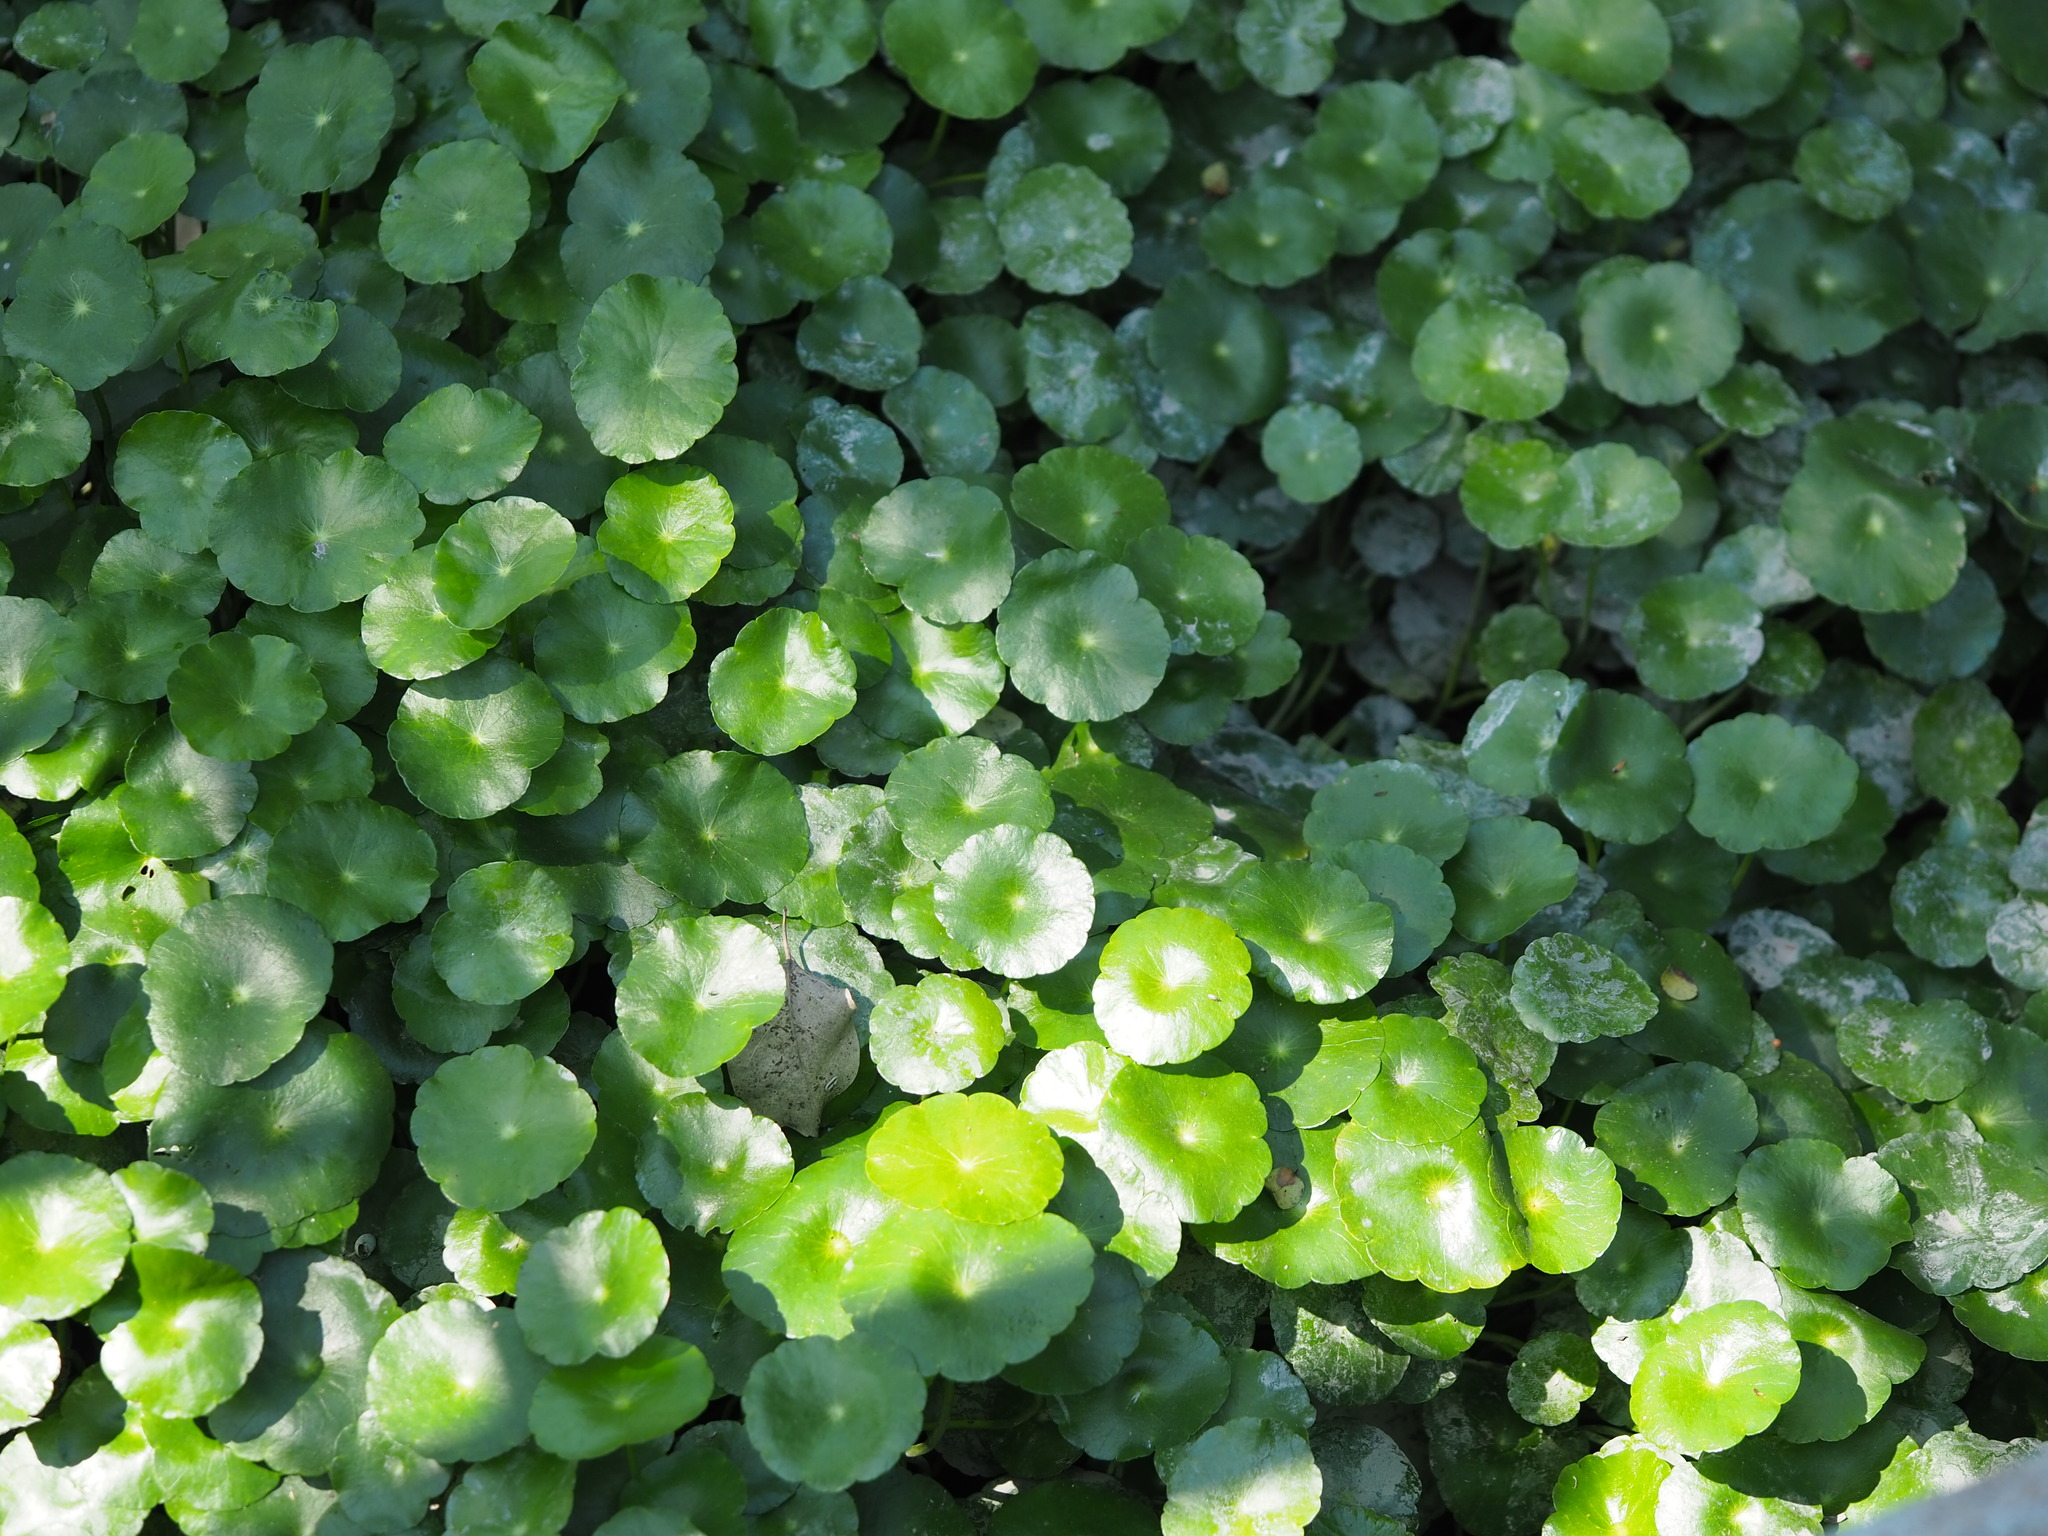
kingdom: Plantae
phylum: Tracheophyta
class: Magnoliopsida
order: Apiales
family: Araliaceae
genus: Hydrocotyle
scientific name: Hydrocotyle verticillata
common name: Whorled marshpennywort
